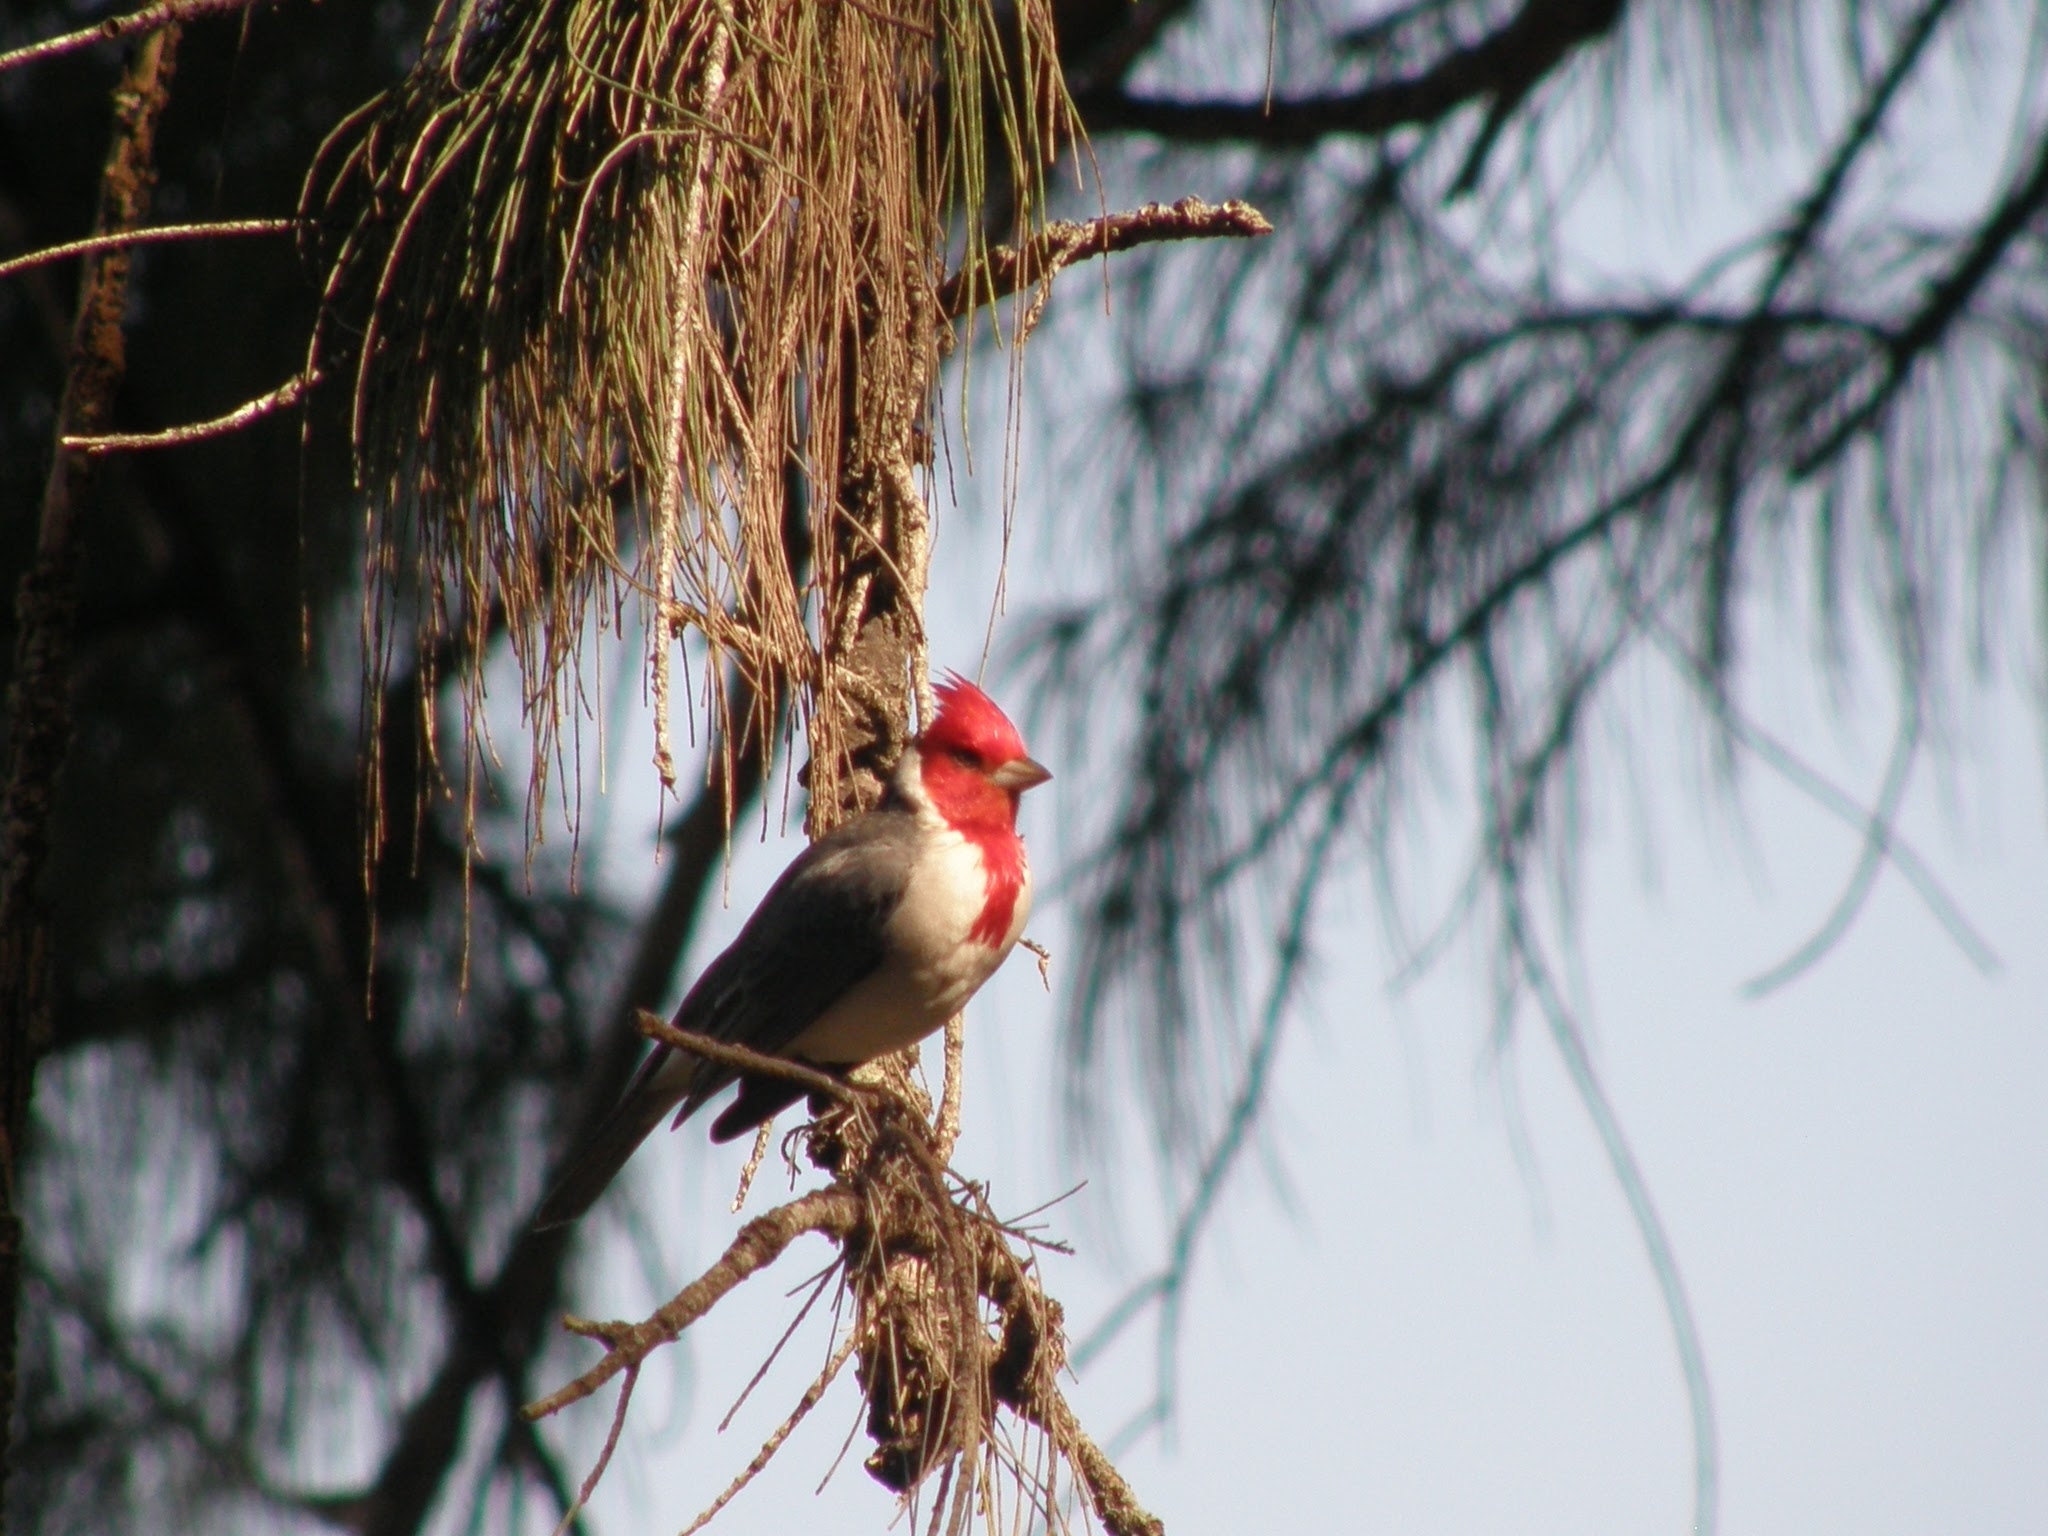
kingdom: Animalia
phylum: Chordata
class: Aves
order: Passeriformes
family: Thraupidae
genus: Paroaria
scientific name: Paroaria coronata
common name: Red-crested cardinal
